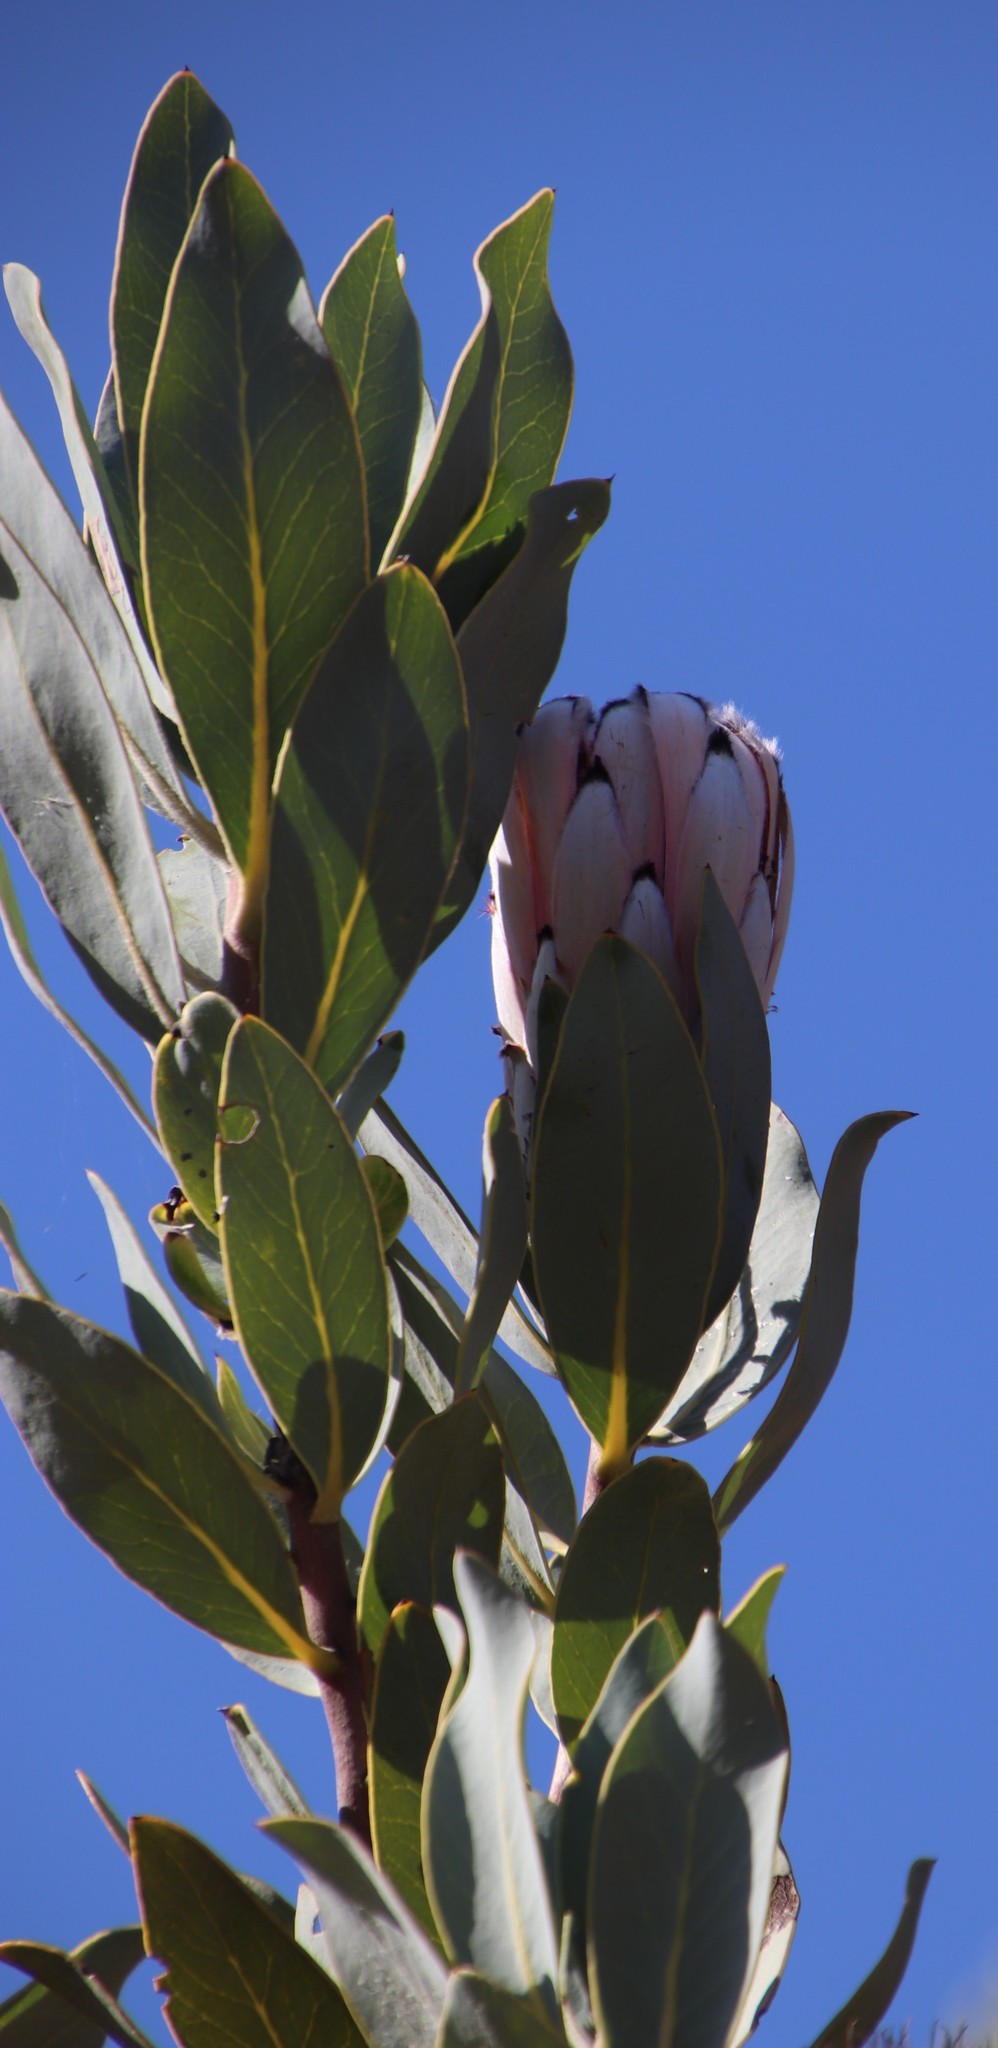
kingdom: Plantae
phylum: Tracheophyta
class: Magnoliopsida
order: Proteales
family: Proteaceae
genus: Protea
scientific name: Protea laurifolia
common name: Grey-leaf sugarbsh
